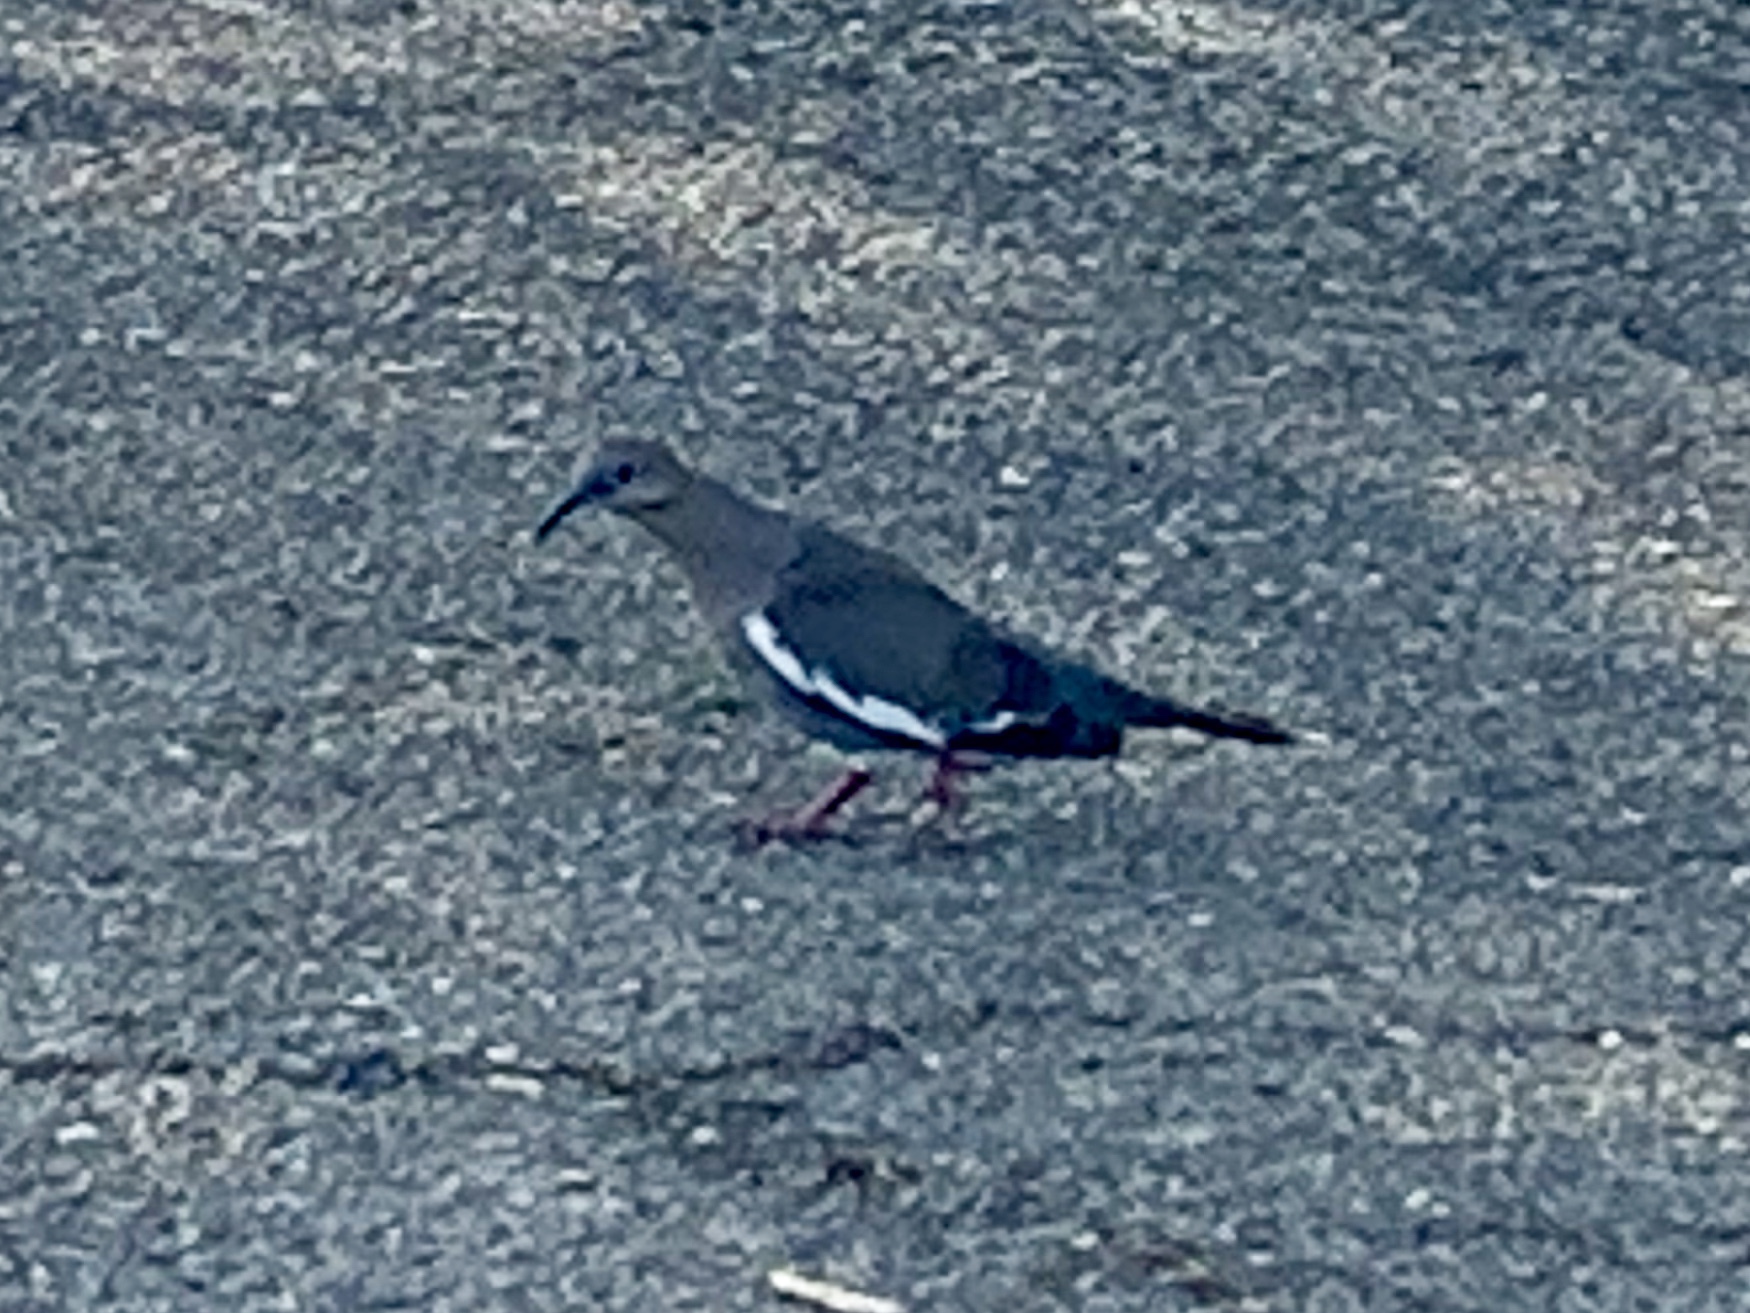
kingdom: Animalia
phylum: Chordata
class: Aves
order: Columbiformes
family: Columbidae
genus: Zenaida
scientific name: Zenaida asiatica
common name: White-winged dove
